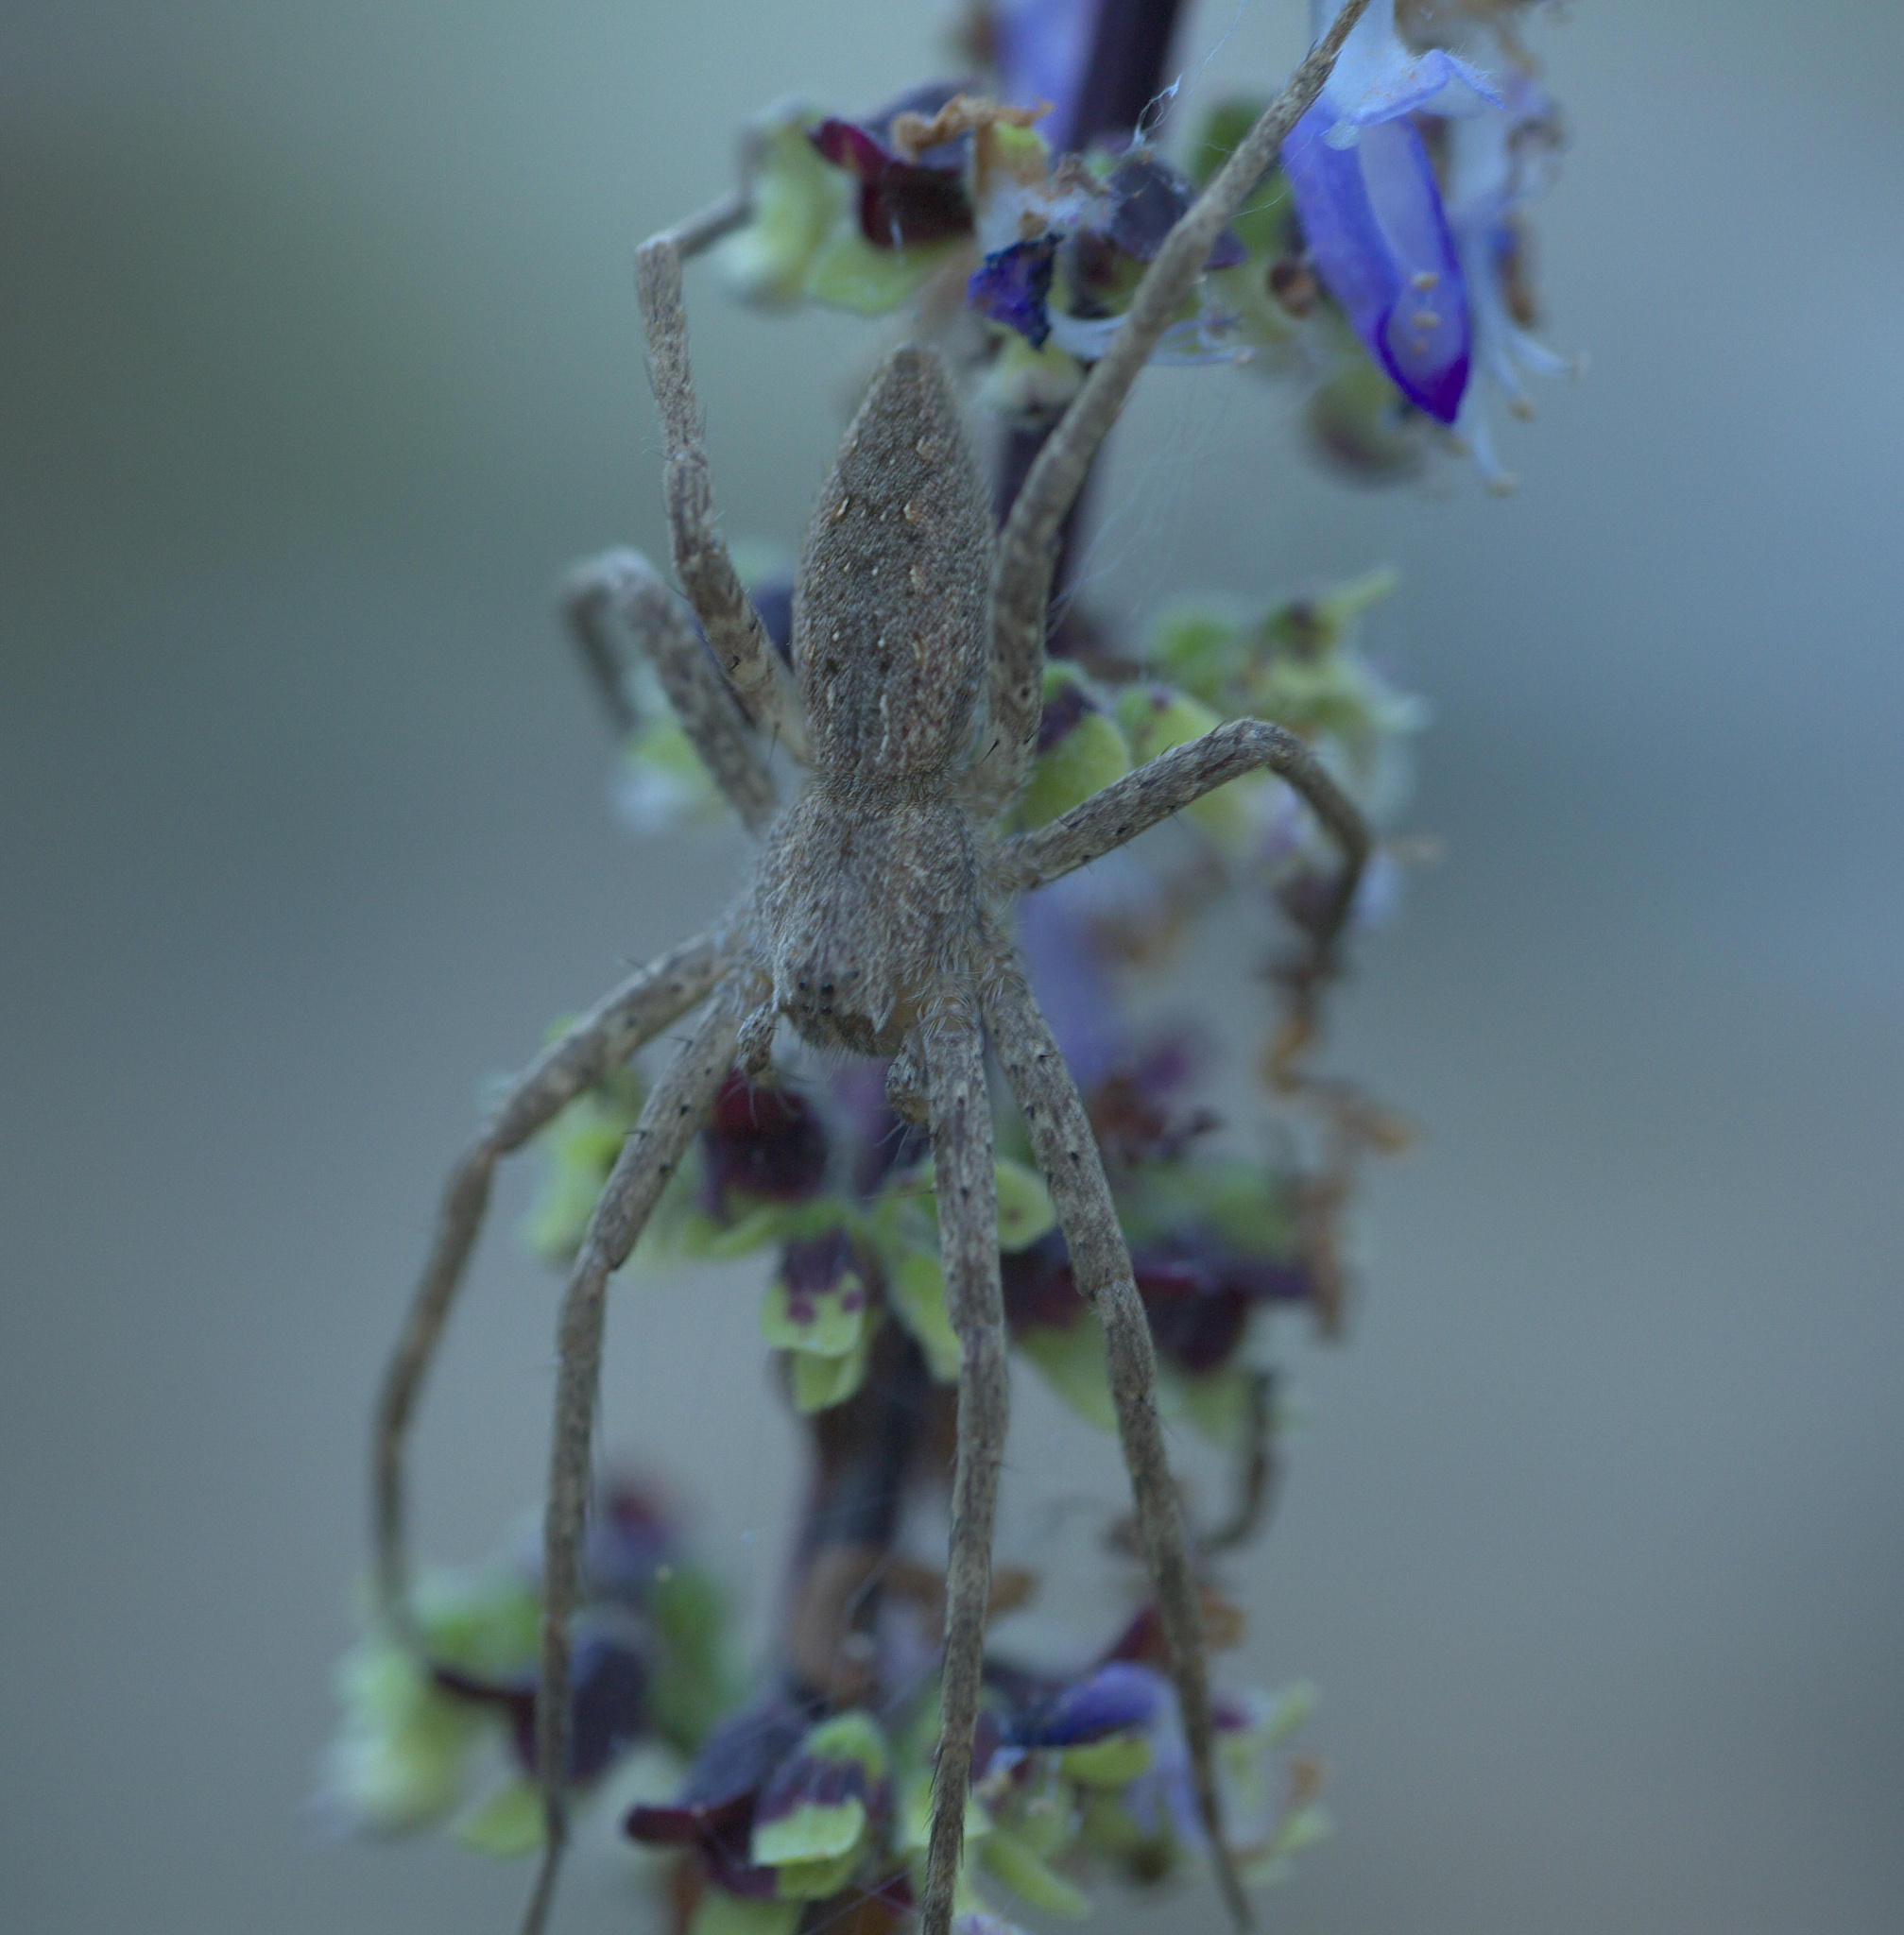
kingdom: Animalia
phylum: Arthropoda
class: Arachnida
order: Araneae
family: Pisauridae
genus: Pisaurina
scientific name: Pisaurina mira
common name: American nursery web spider
